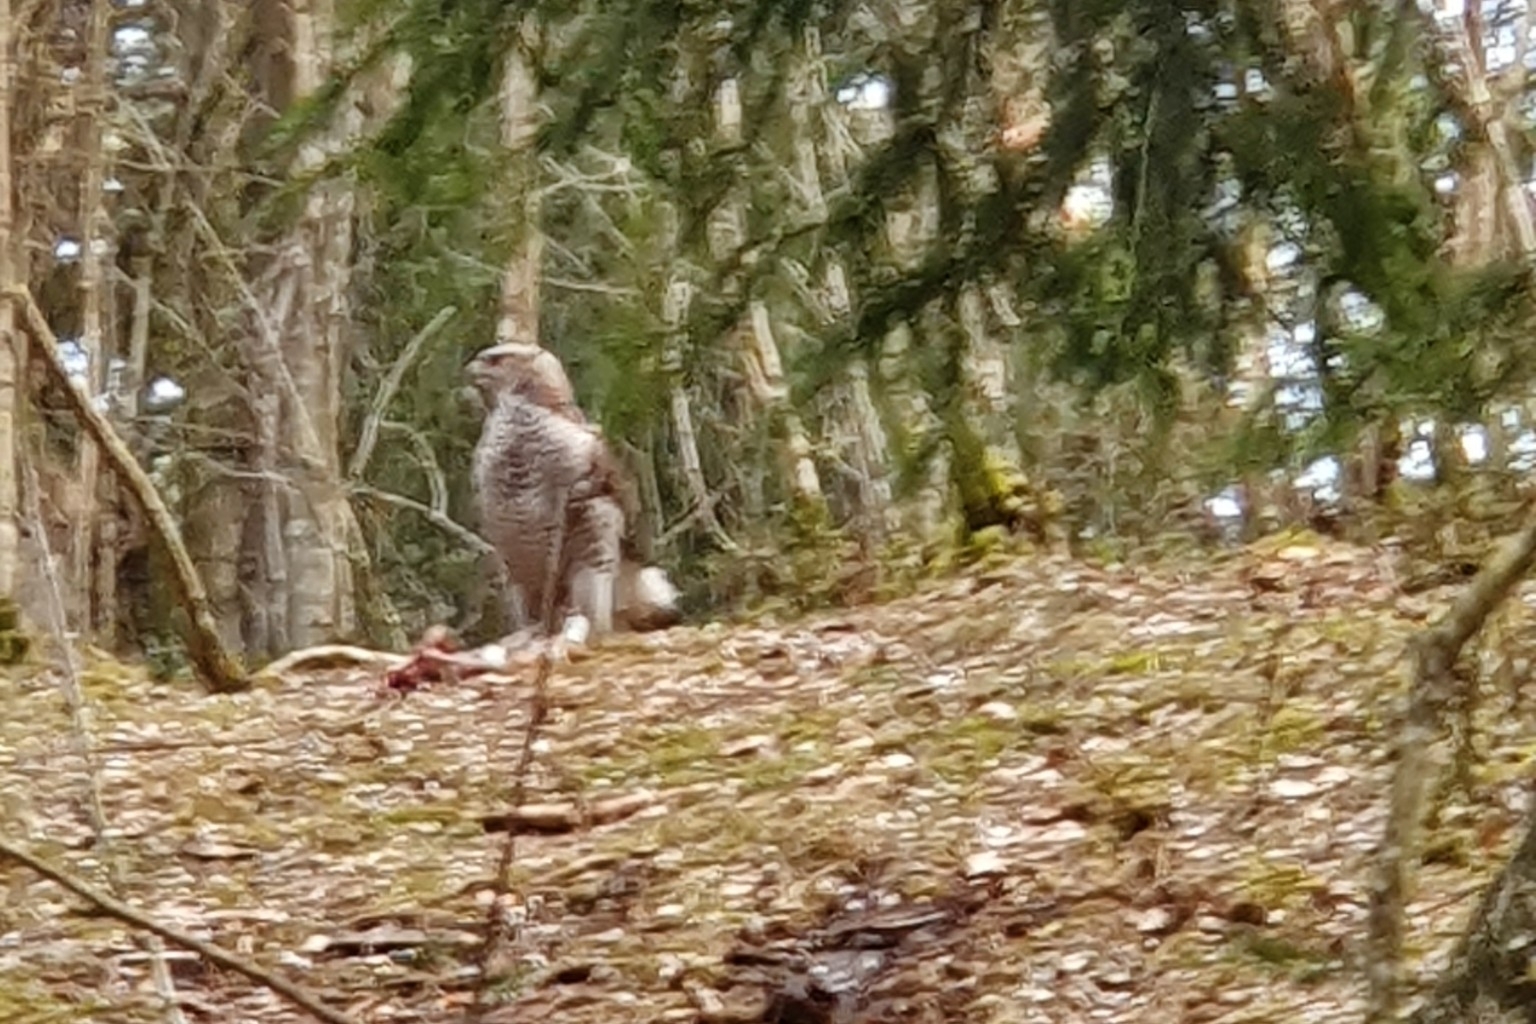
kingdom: Animalia
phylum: Chordata
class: Aves
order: Accipitriformes
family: Accipitridae
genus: Accipiter
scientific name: Accipiter gentilis
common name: Northern goshawk
